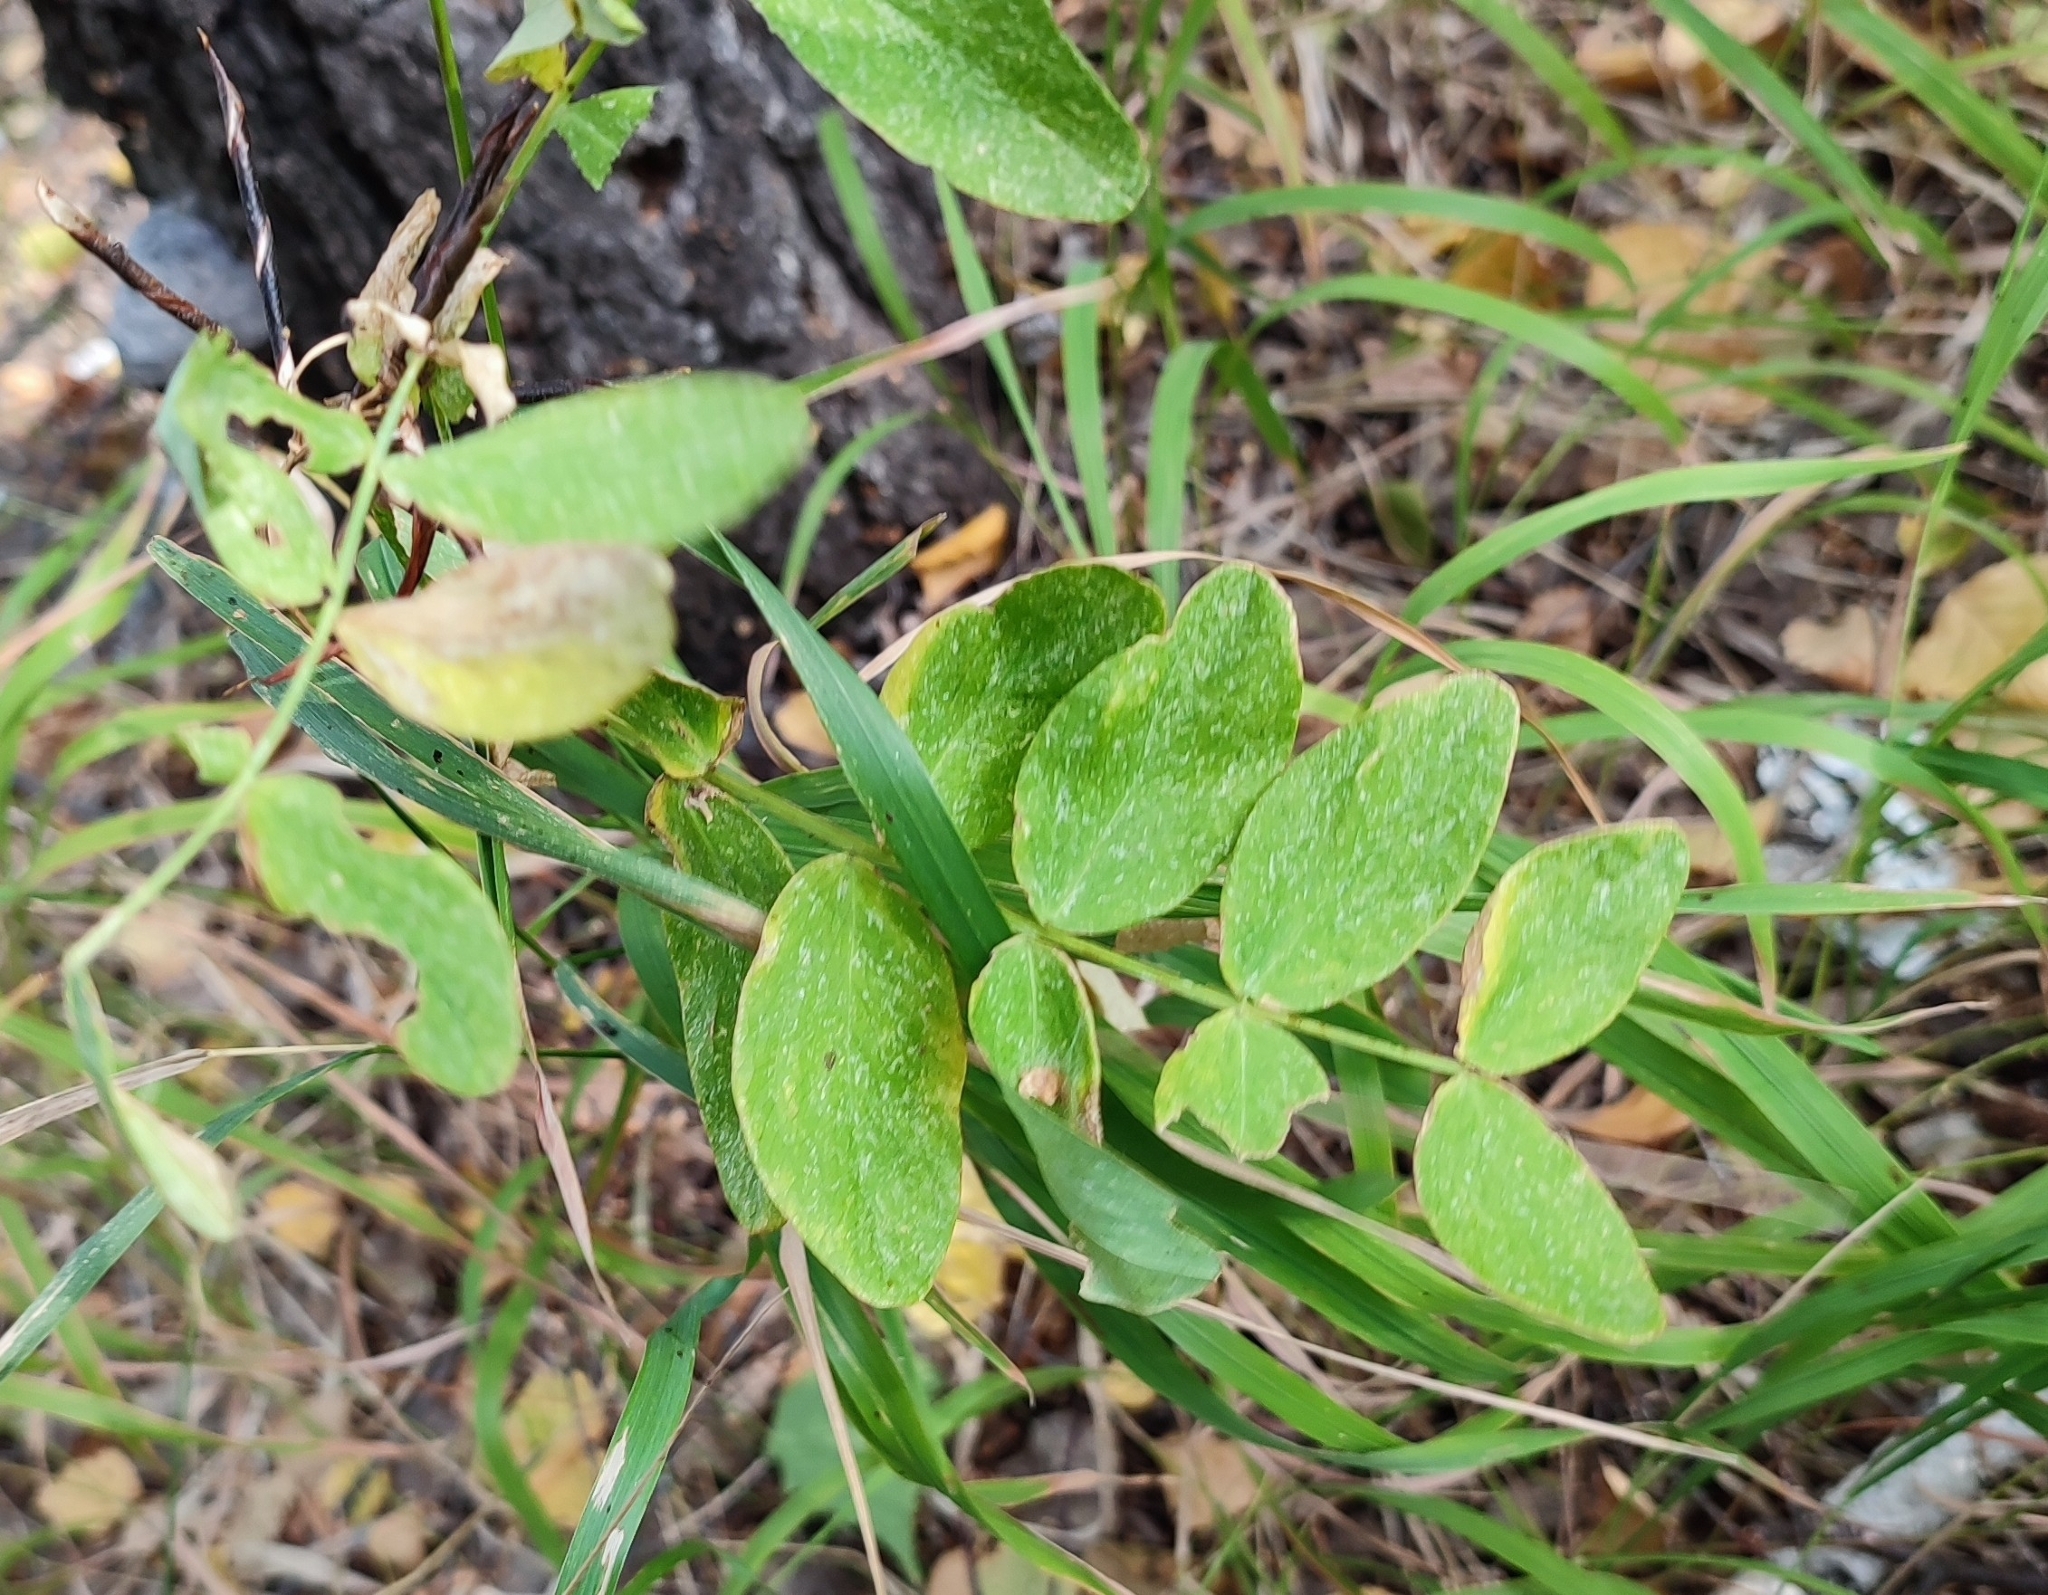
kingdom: Plantae
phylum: Tracheophyta
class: Magnoliopsida
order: Fabales
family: Fabaceae
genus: Lathyrus
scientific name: Lathyrus pisiformis
